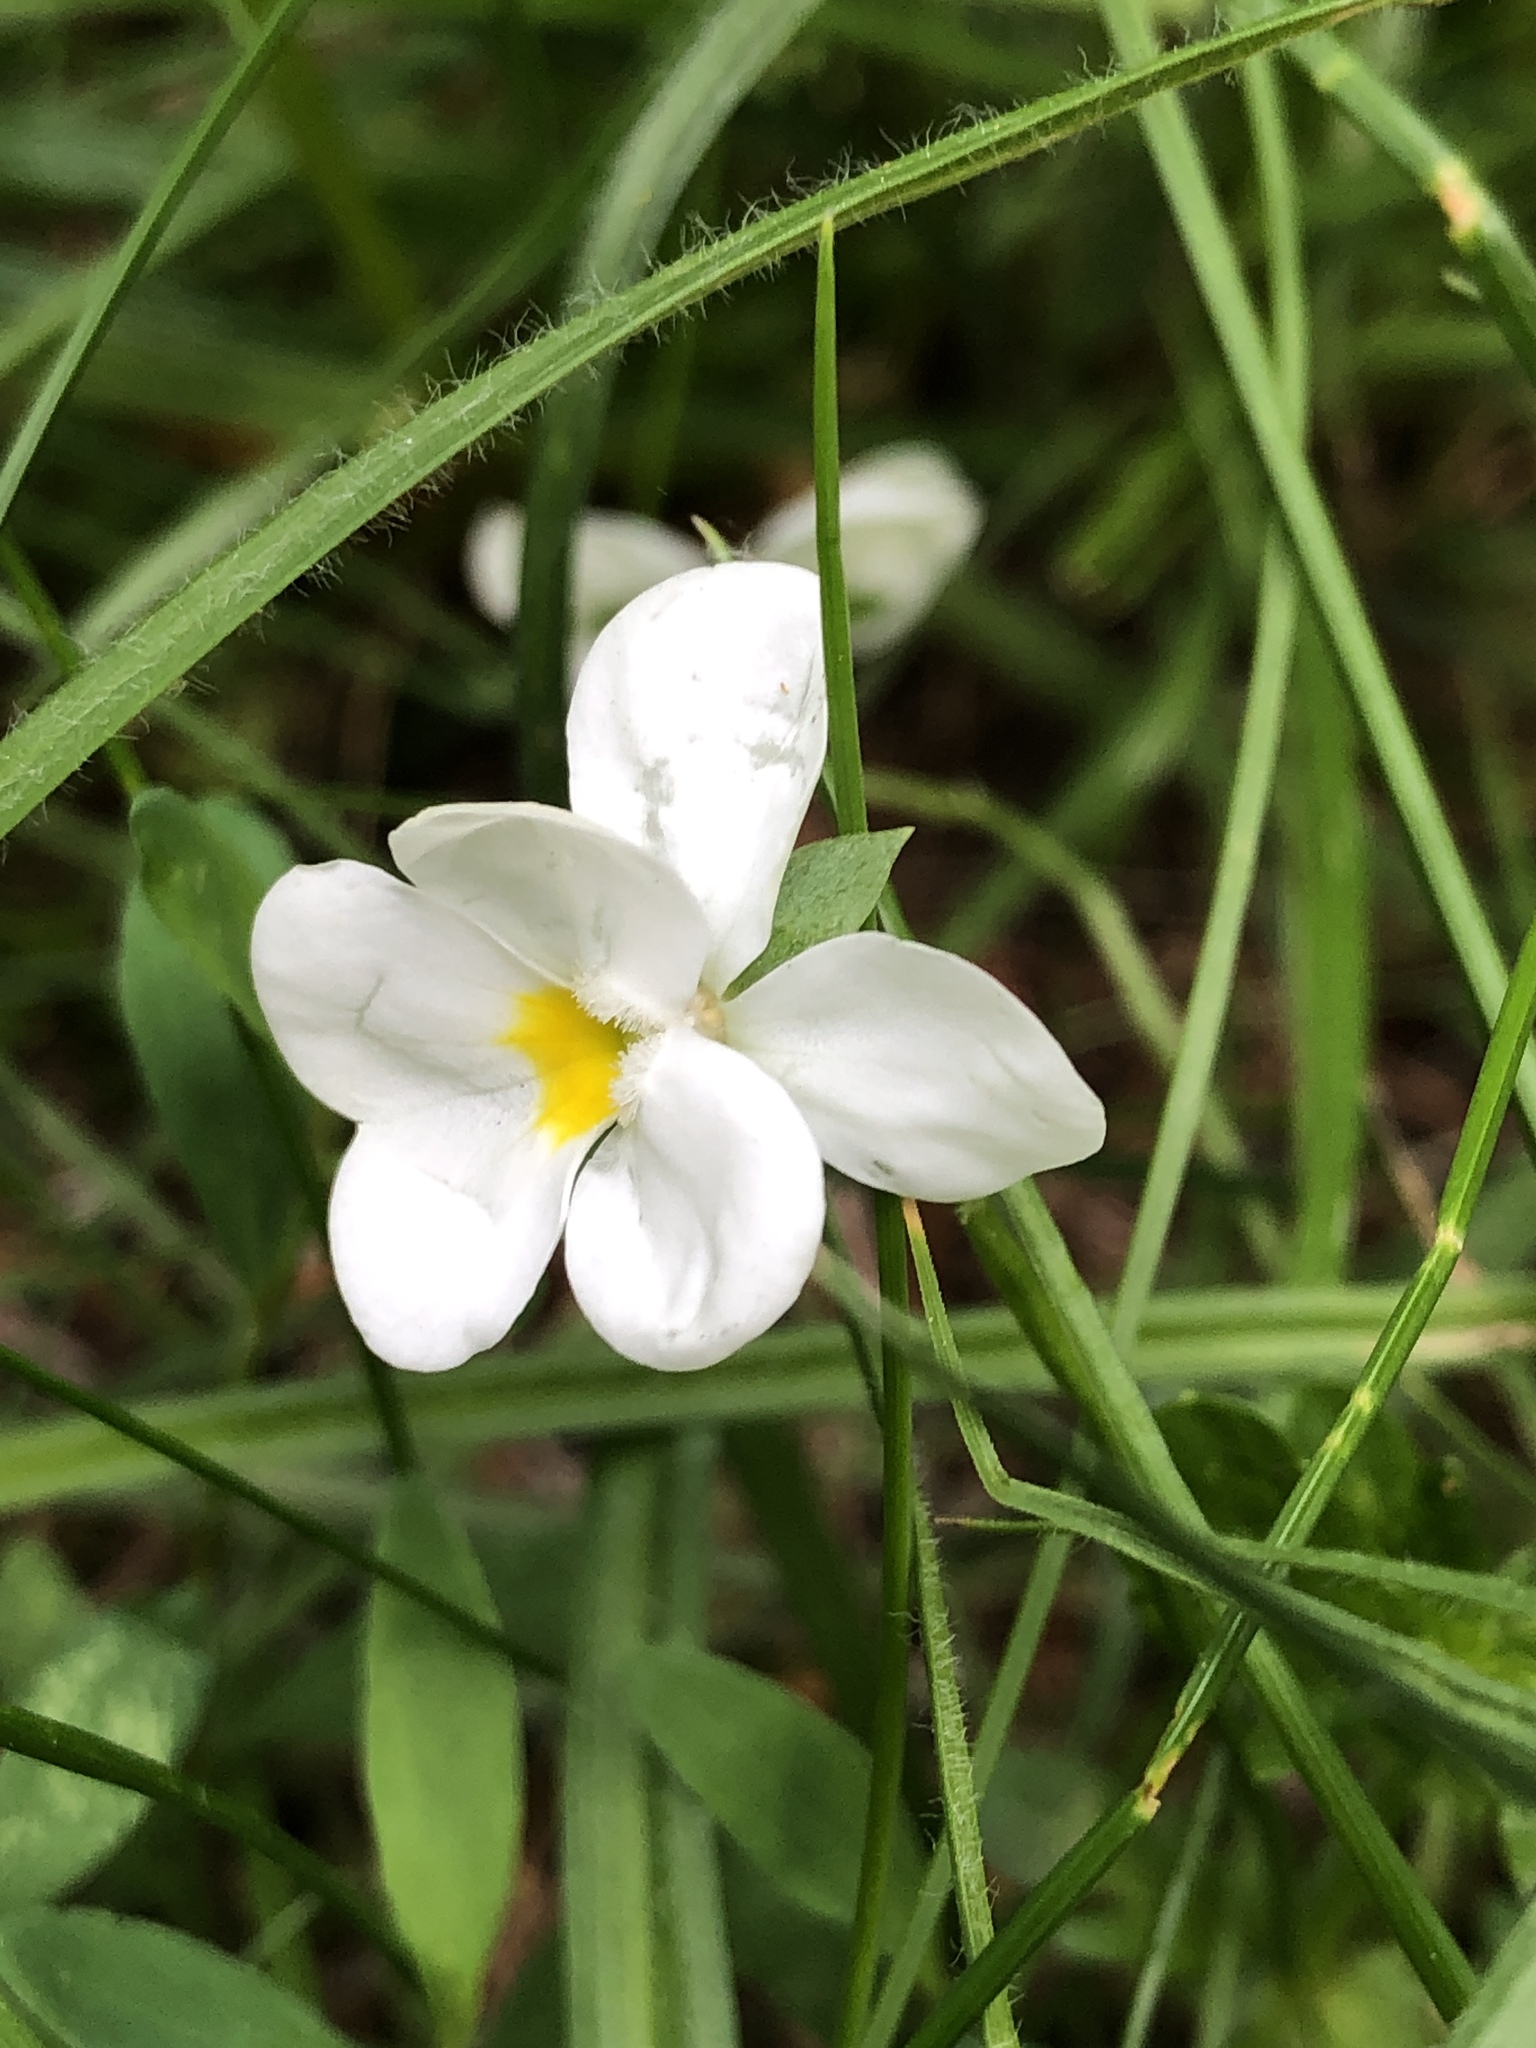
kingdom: Plantae
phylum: Tracheophyta
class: Magnoliopsida
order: Malpighiales
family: Violaceae
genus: Viola
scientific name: Viola arvensis
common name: Field pansy
